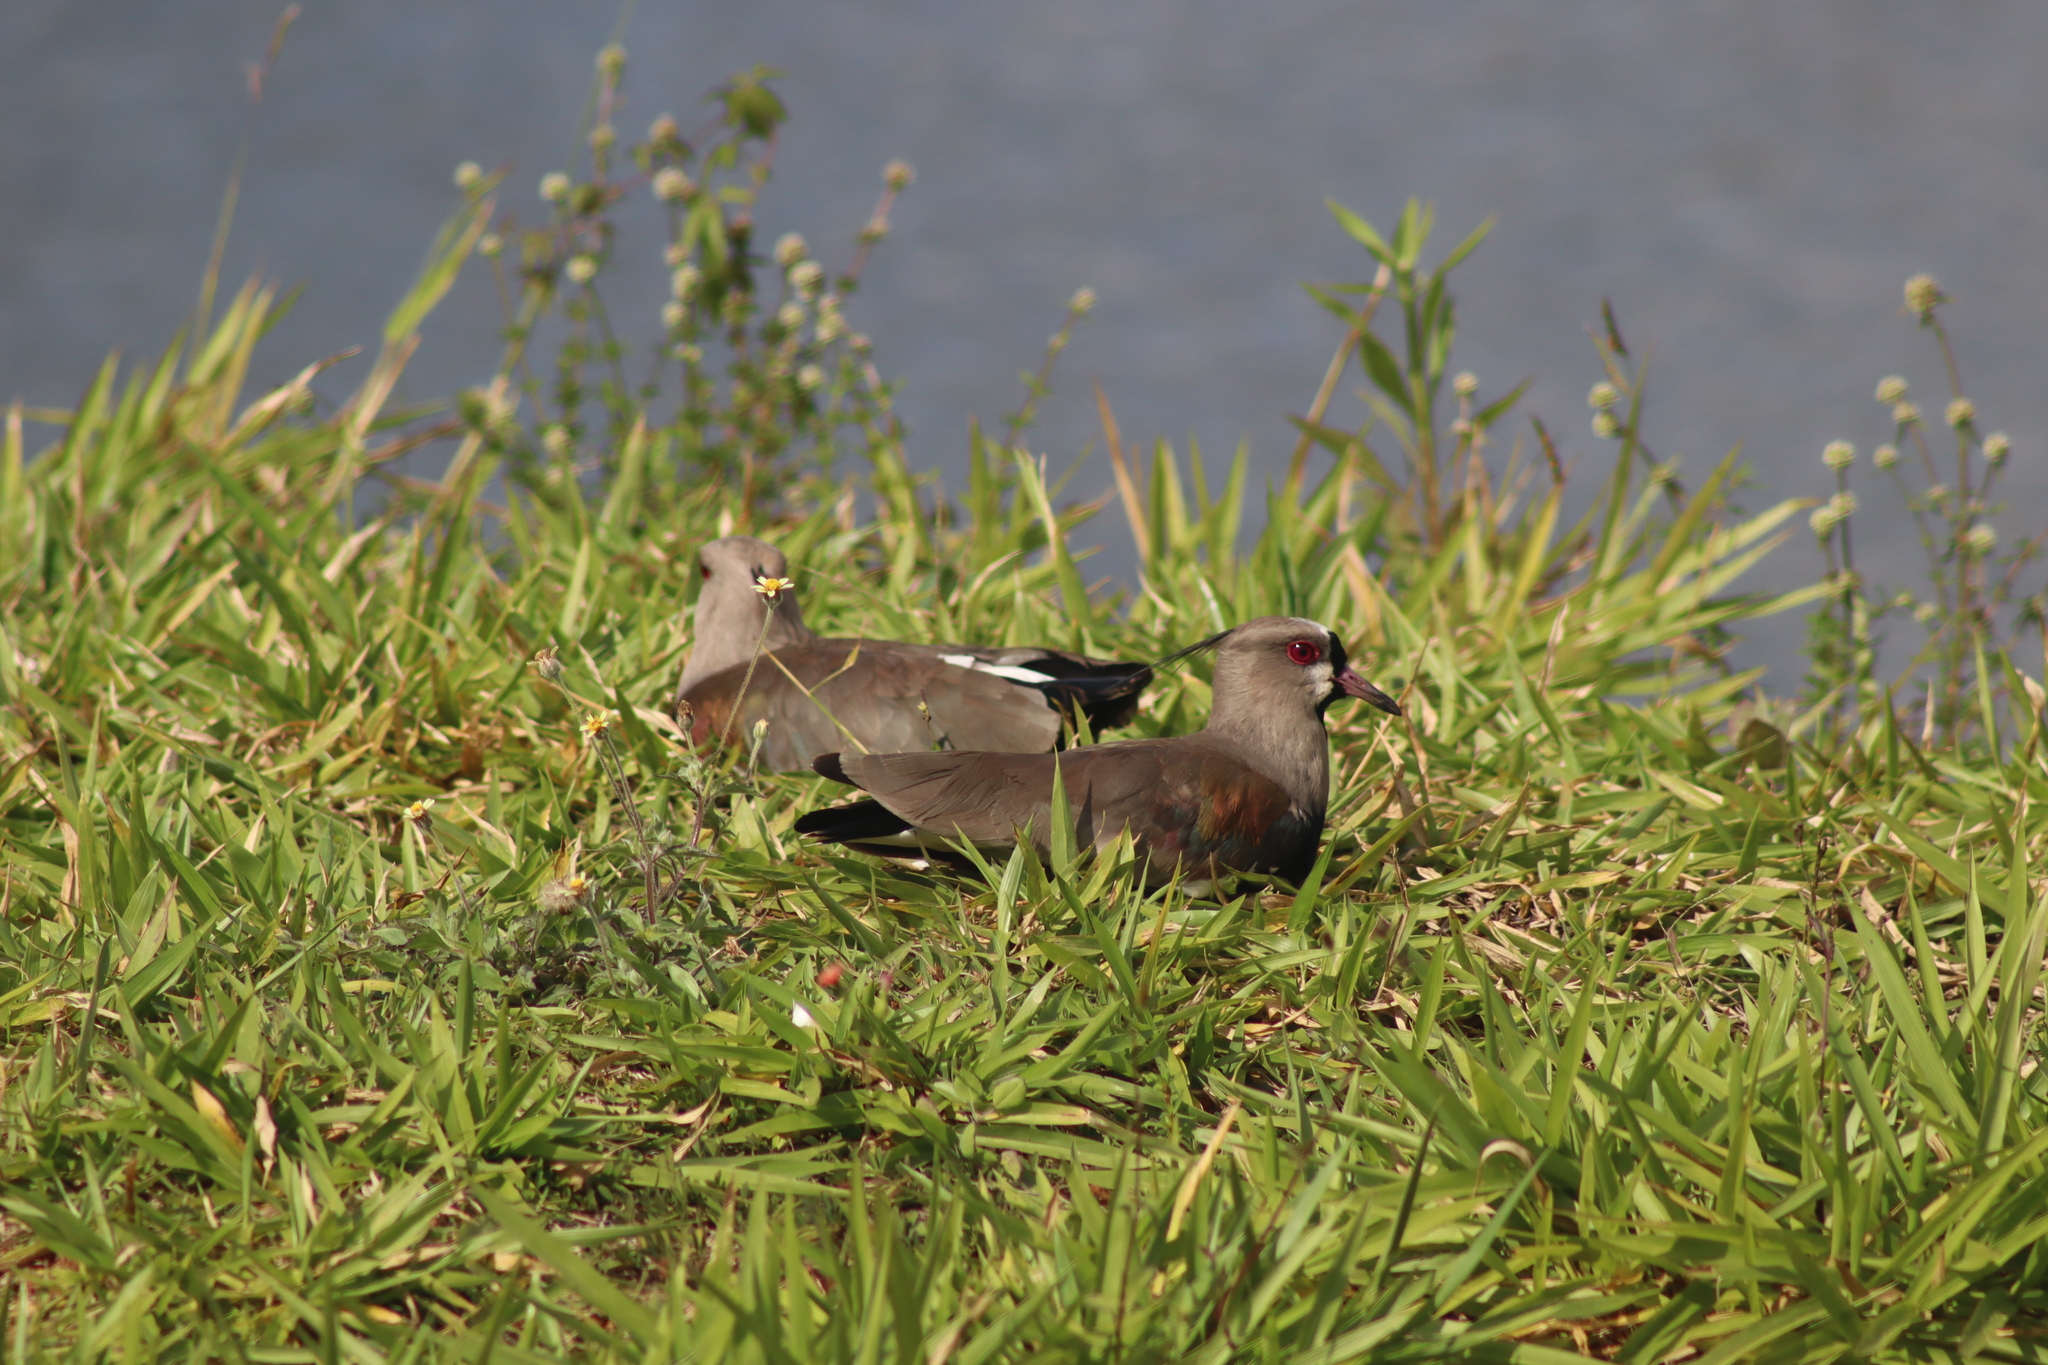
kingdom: Animalia
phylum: Chordata
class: Aves
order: Charadriiformes
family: Charadriidae
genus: Vanellus
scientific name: Vanellus chilensis
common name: Southern lapwing
